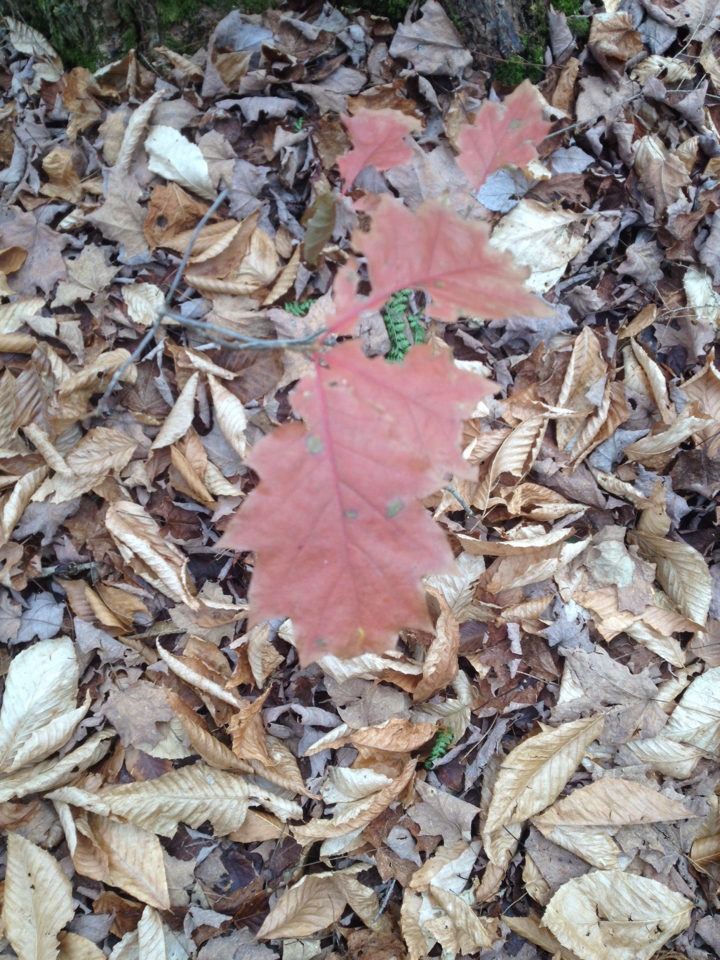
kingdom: Plantae
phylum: Tracheophyta
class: Magnoliopsida
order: Fagales
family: Fagaceae
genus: Quercus
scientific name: Quercus rubra
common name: Red oak
